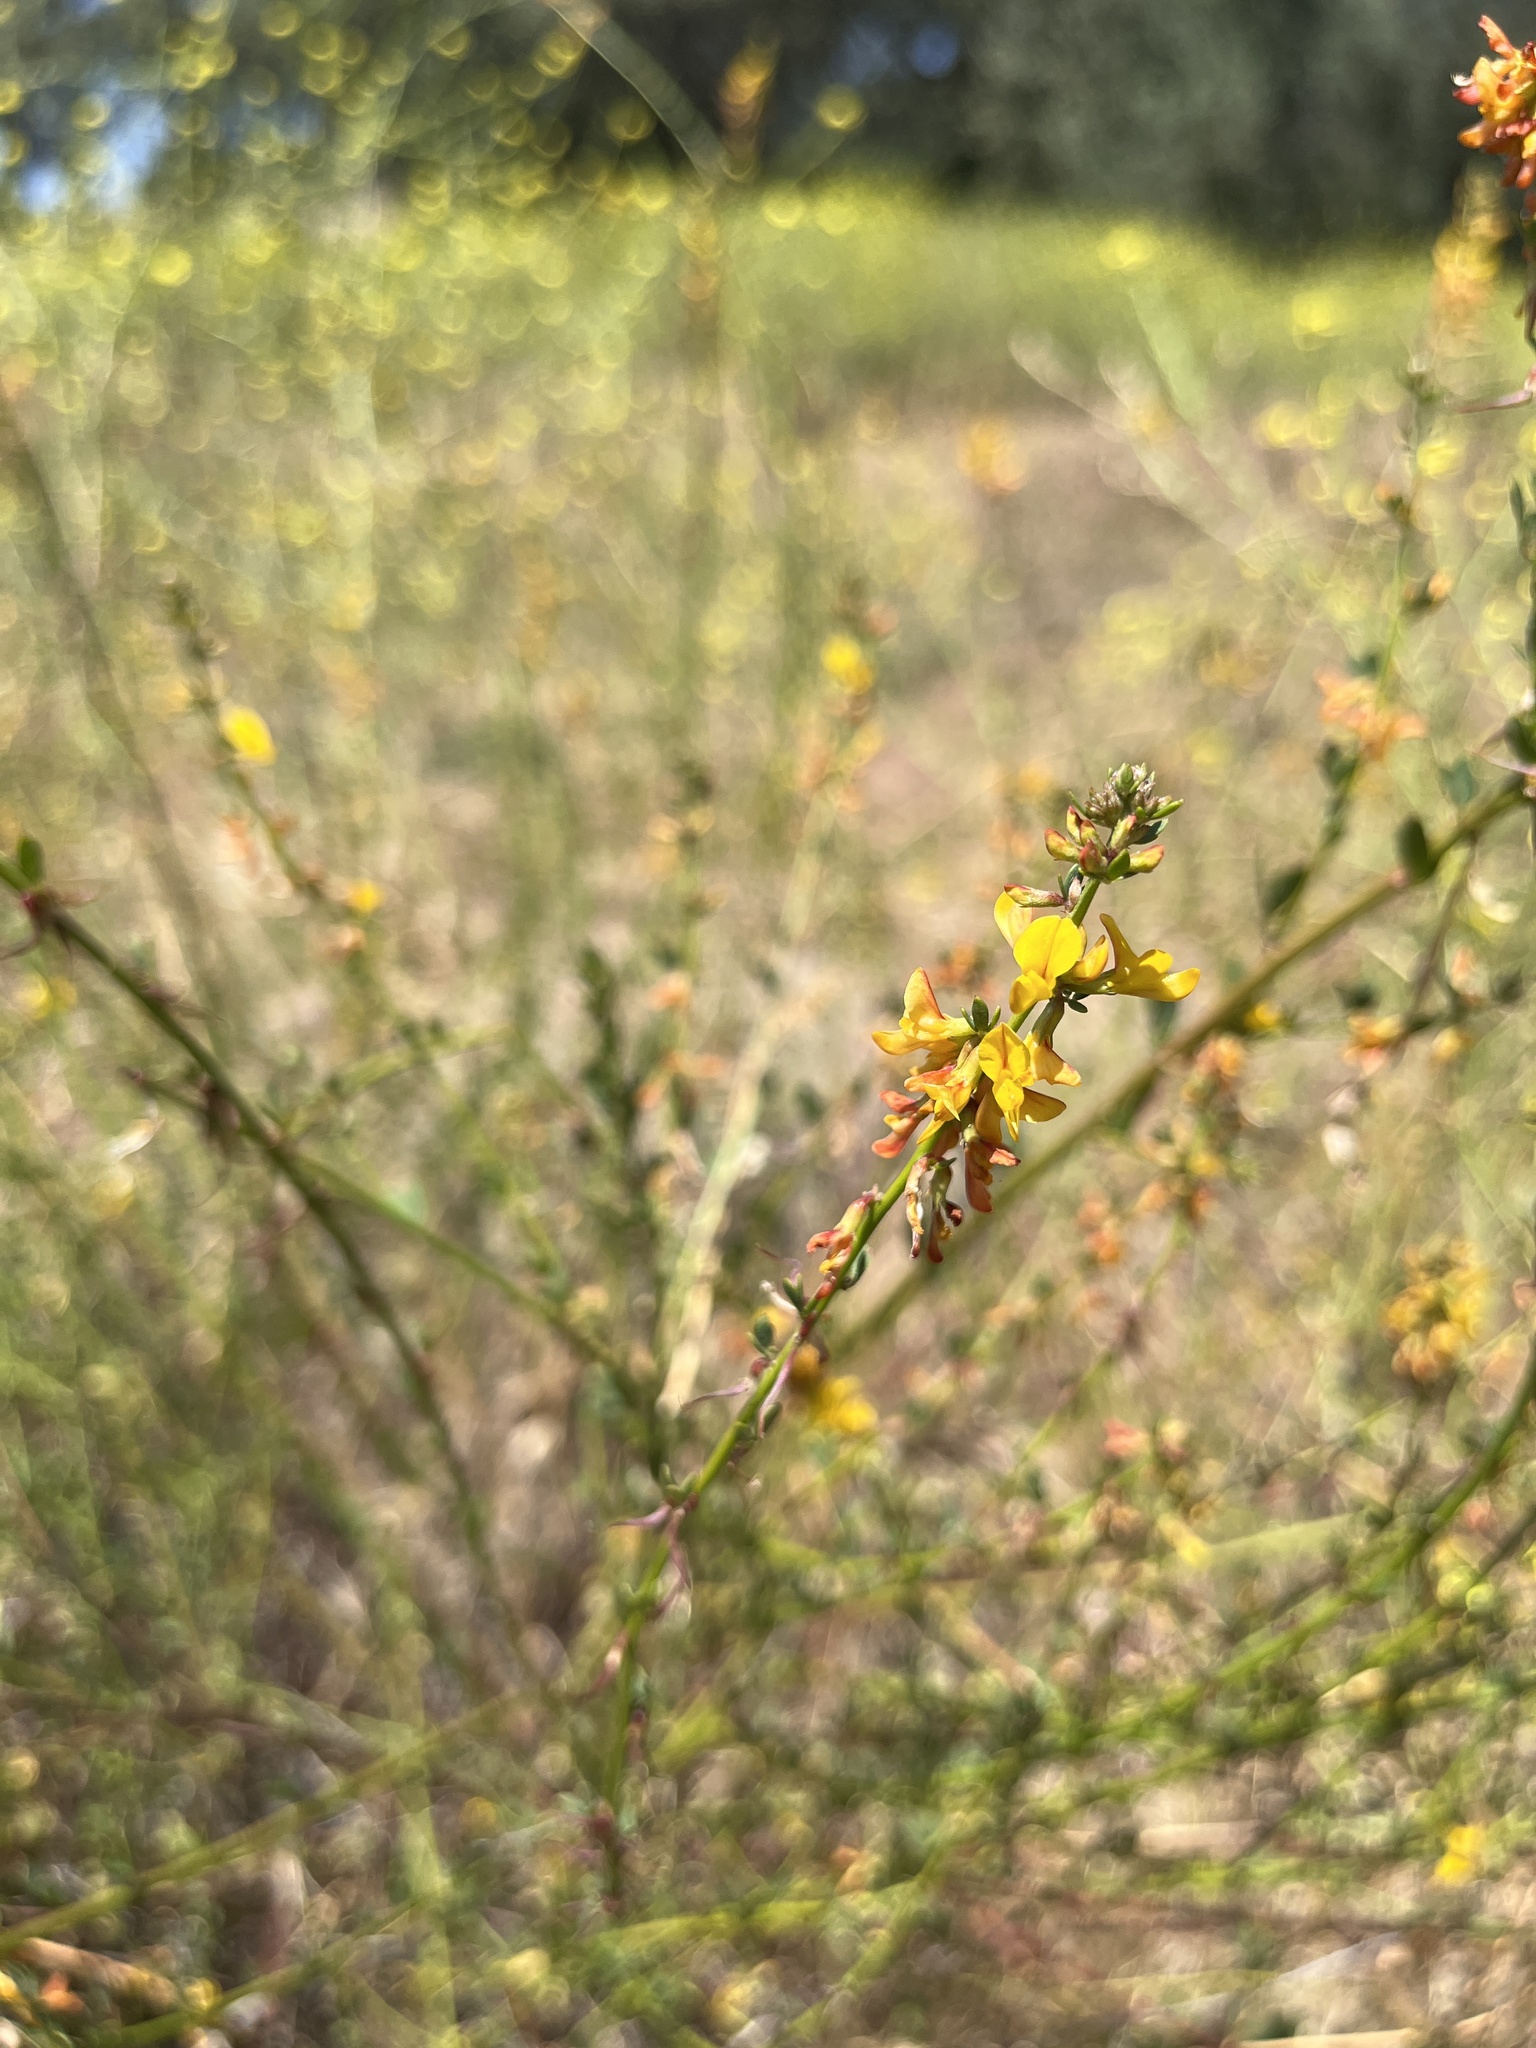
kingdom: Plantae
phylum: Tracheophyta
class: Magnoliopsida
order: Fabales
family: Fabaceae
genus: Acmispon
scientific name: Acmispon glaber
